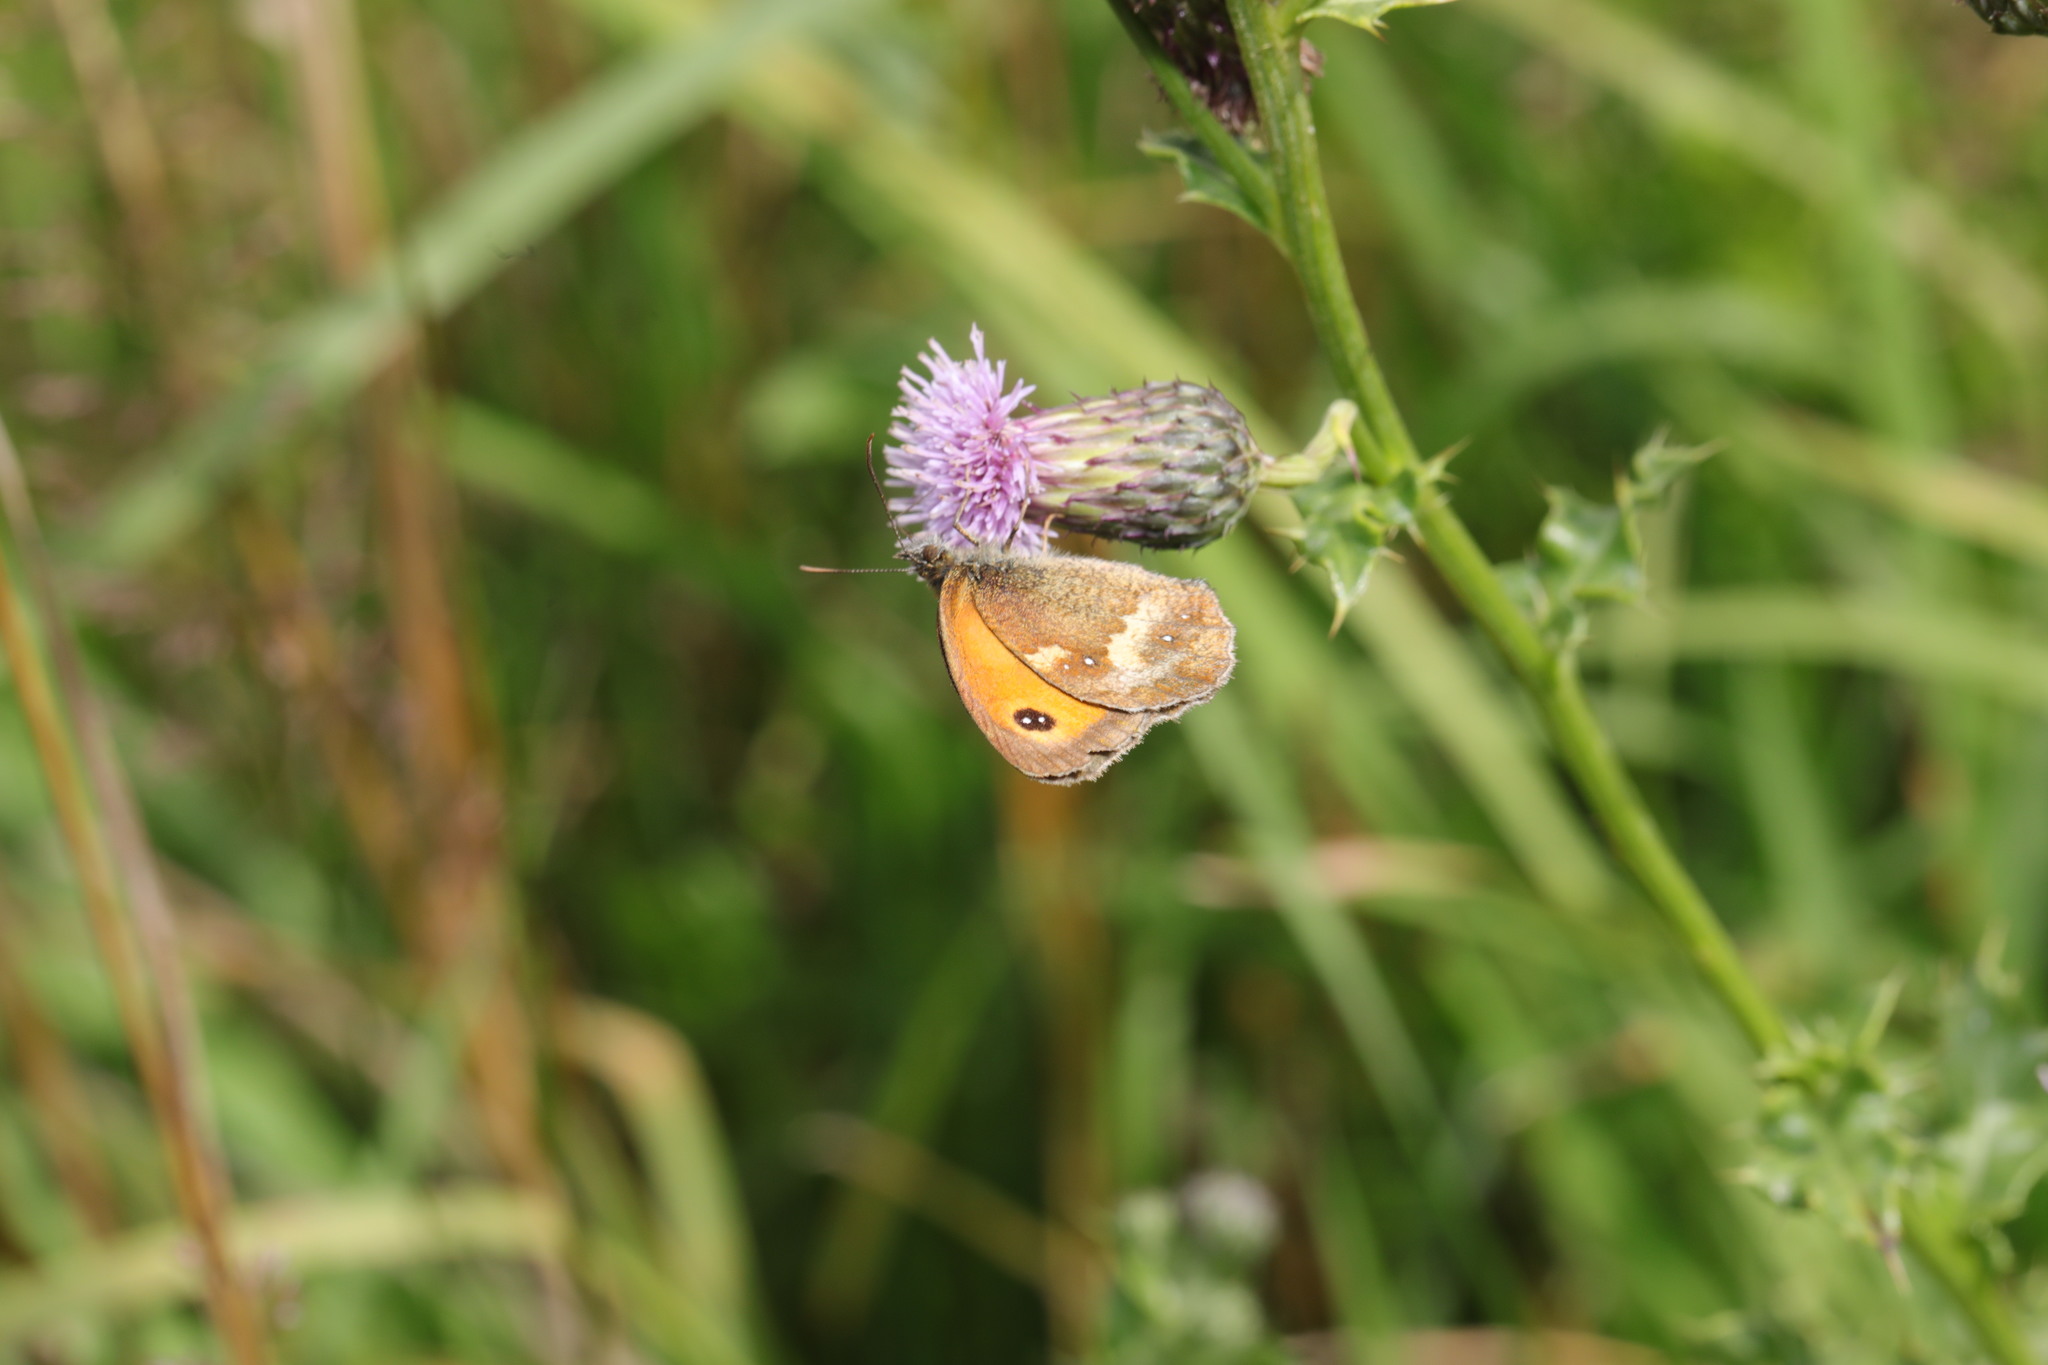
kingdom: Animalia
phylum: Arthropoda
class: Insecta
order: Lepidoptera
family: Nymphalidae
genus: Pyronia
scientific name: Pyronia tithonus
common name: Gatekeeper
